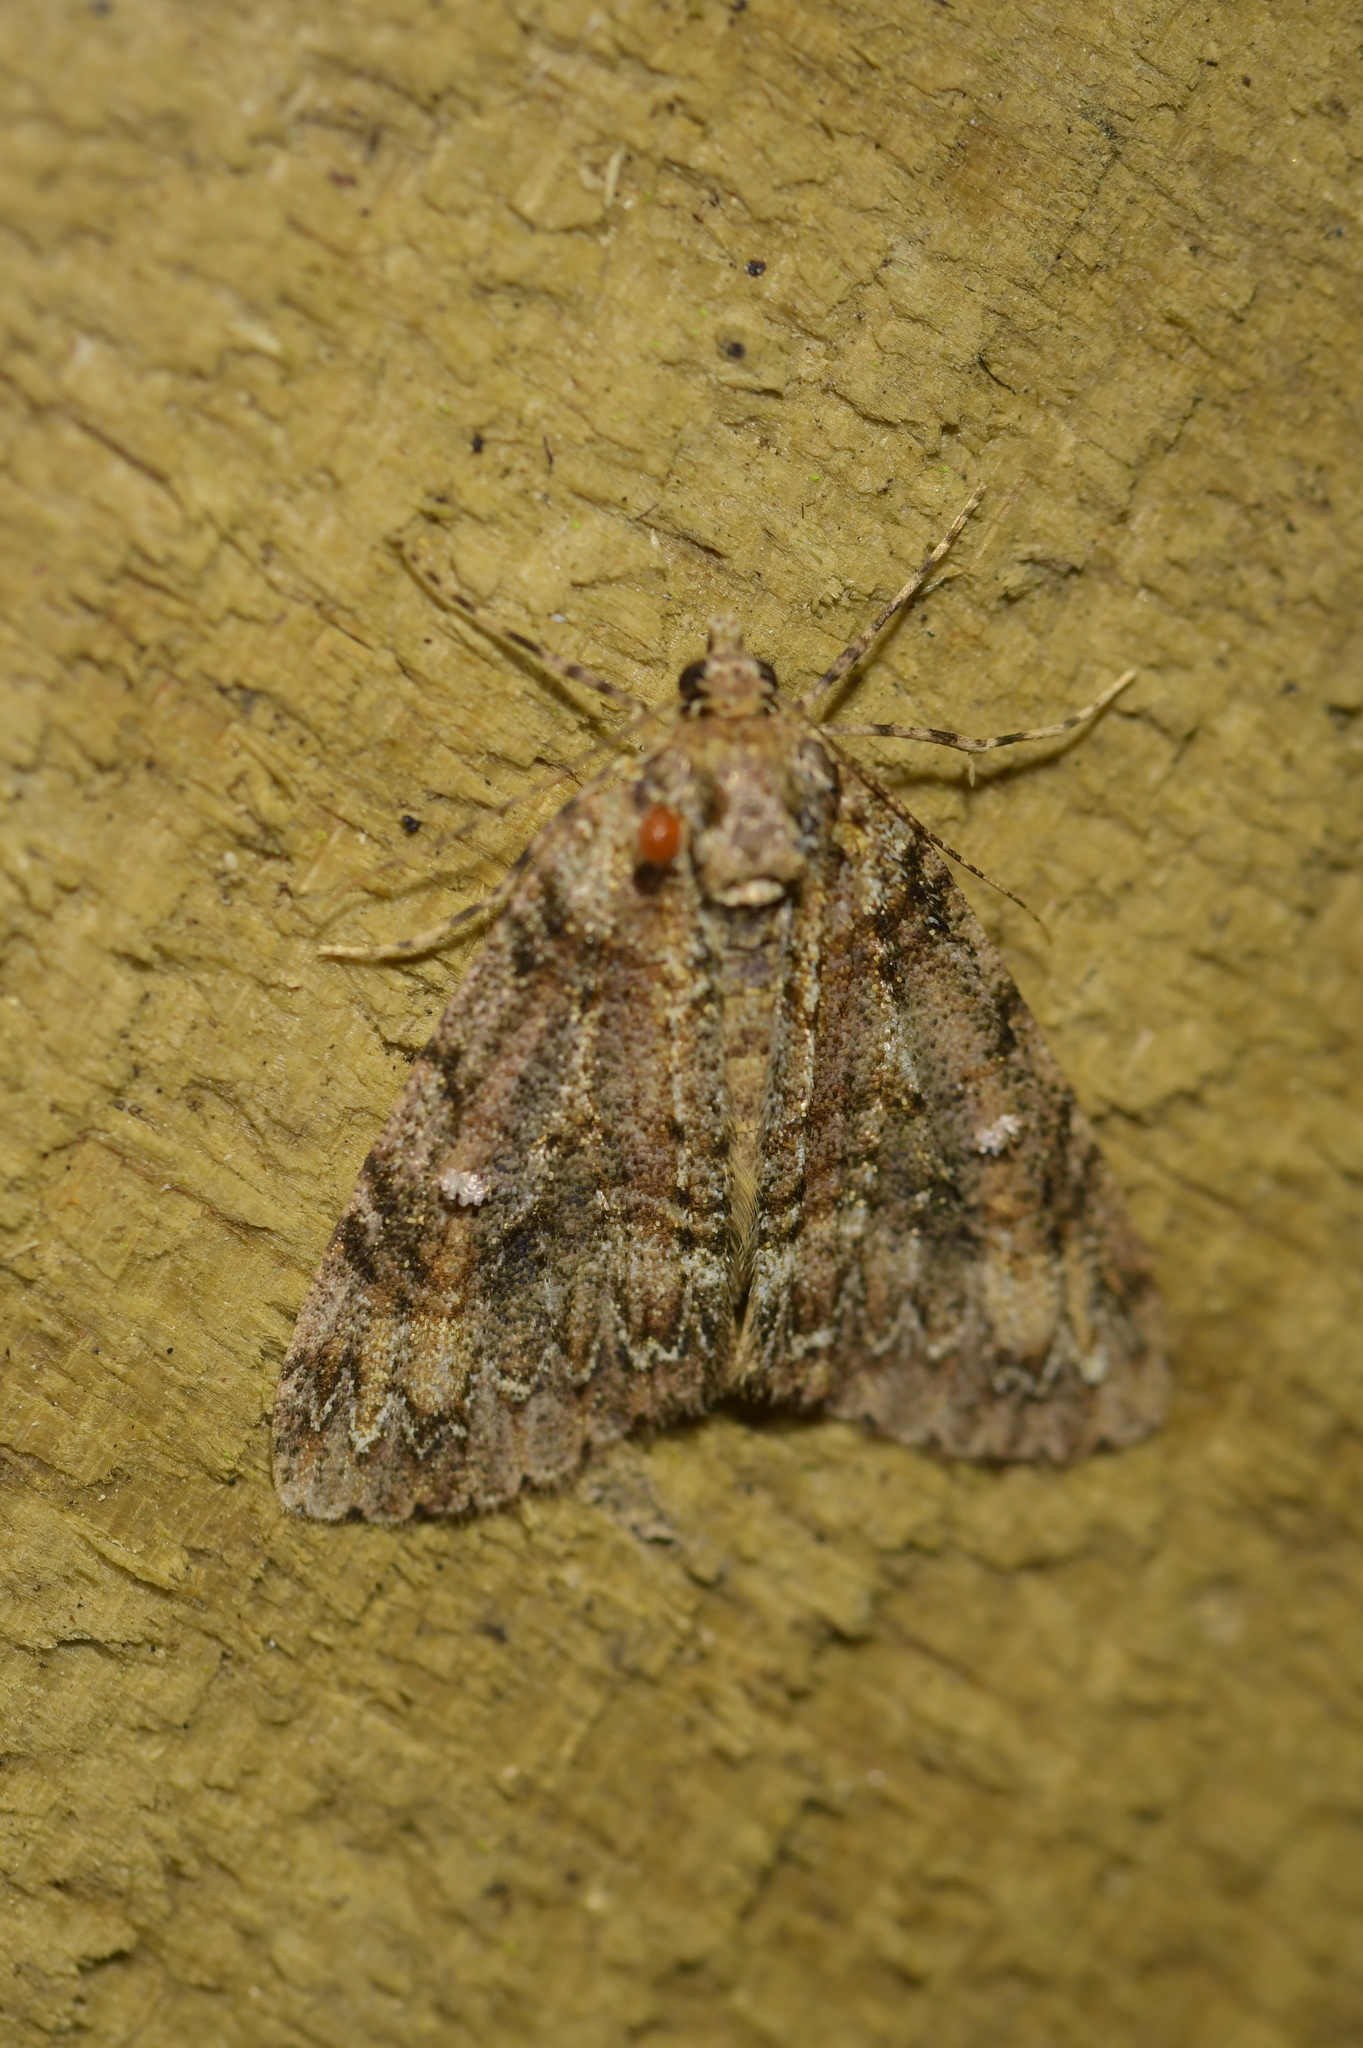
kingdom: Animalia
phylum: Arthropoda
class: Insecta
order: Lepidoptera
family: Geometridae
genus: Pseudocoremia
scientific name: Pseudocoremia suavis
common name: Common forest looper
